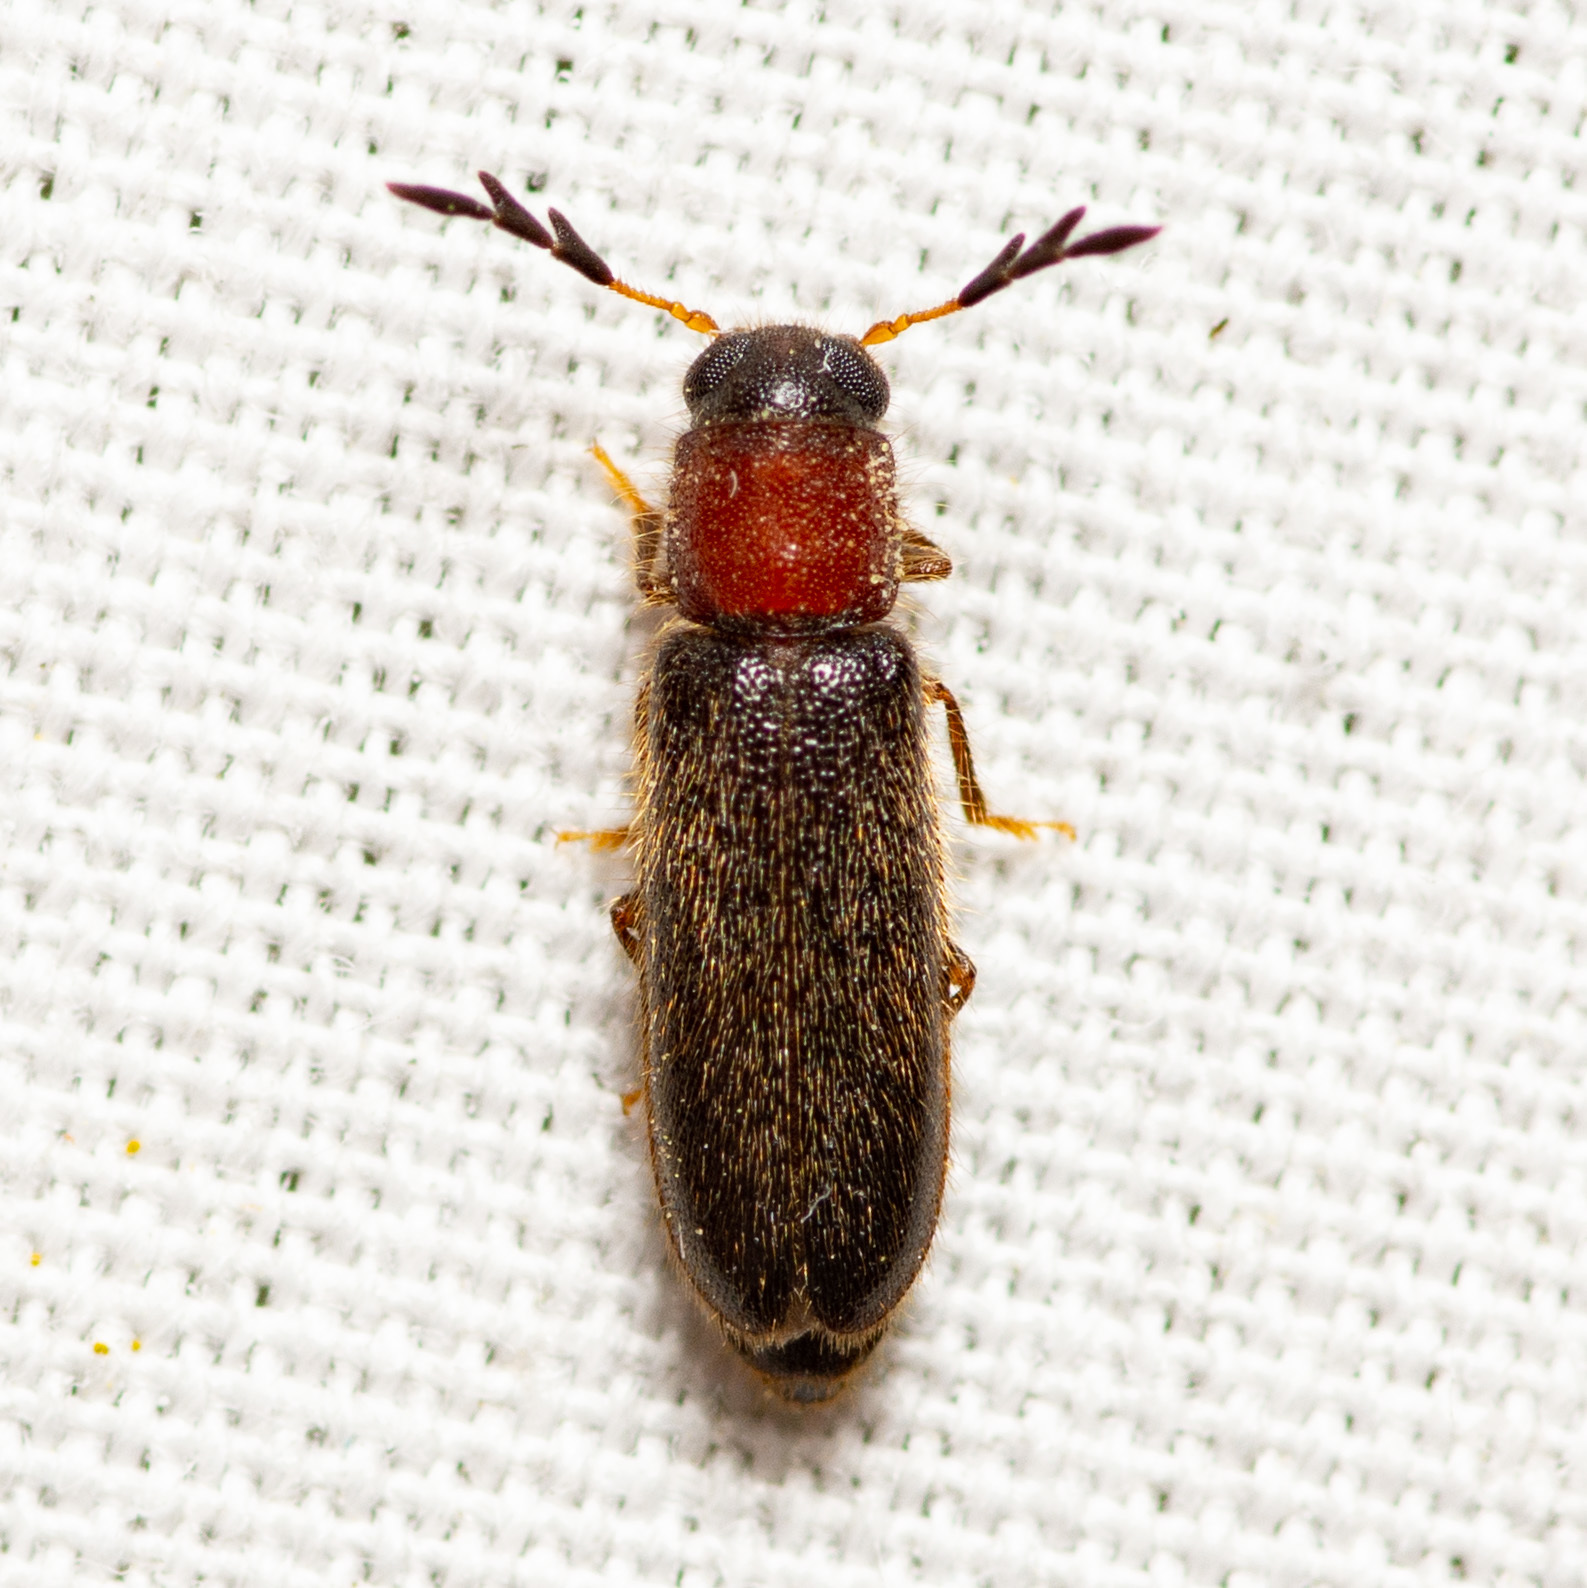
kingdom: Animalia
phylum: Arthropoda
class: Insecta
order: Coleoptera
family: Cleridae
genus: Neorthopleura
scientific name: Neorthopleura texana
